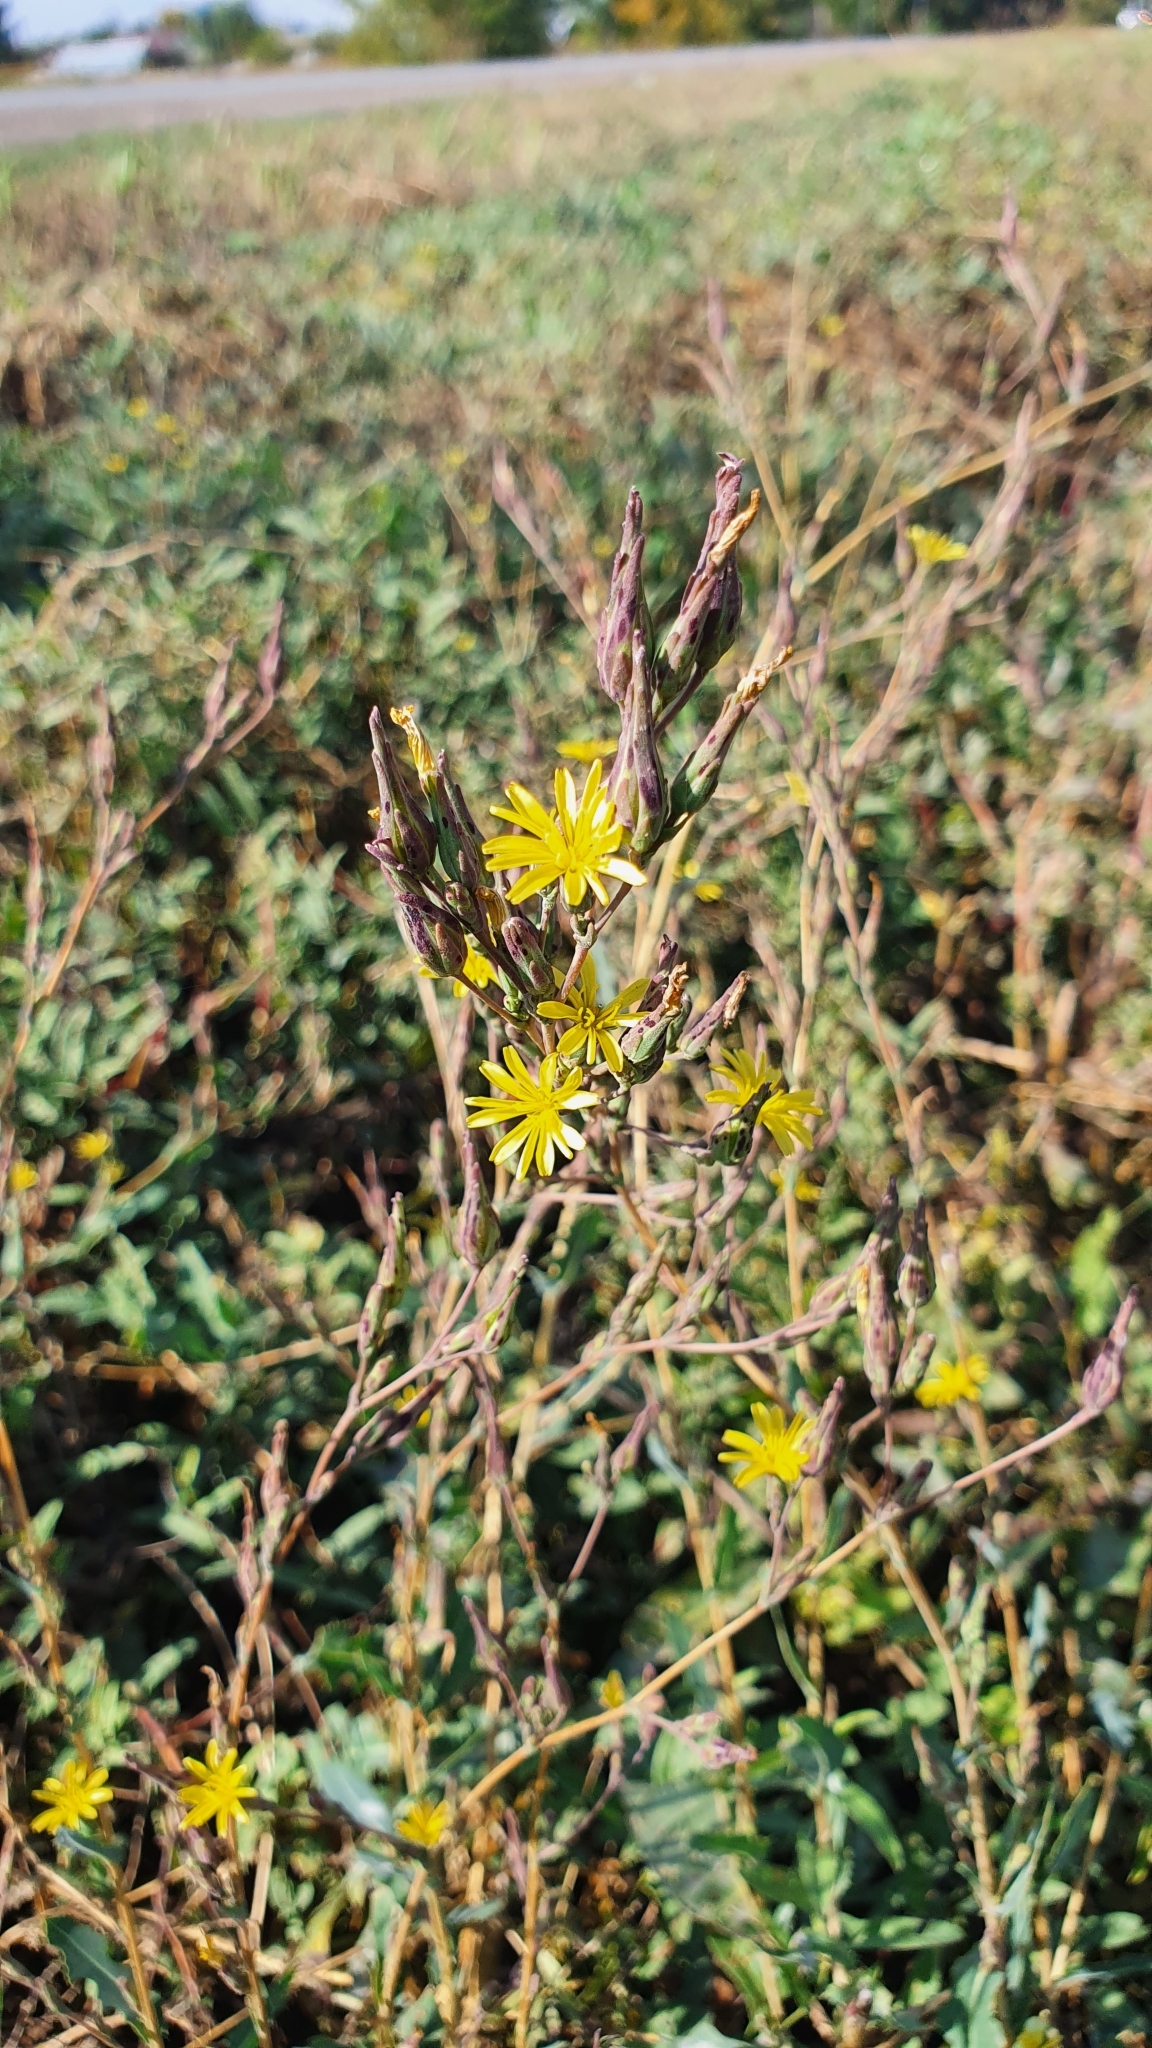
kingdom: Plantae
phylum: Tracheophyta
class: Magnoliopsida
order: Asterales
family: Asteraceae
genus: Lactuca
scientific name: Lactuca serriola
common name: Prickly lettuce
